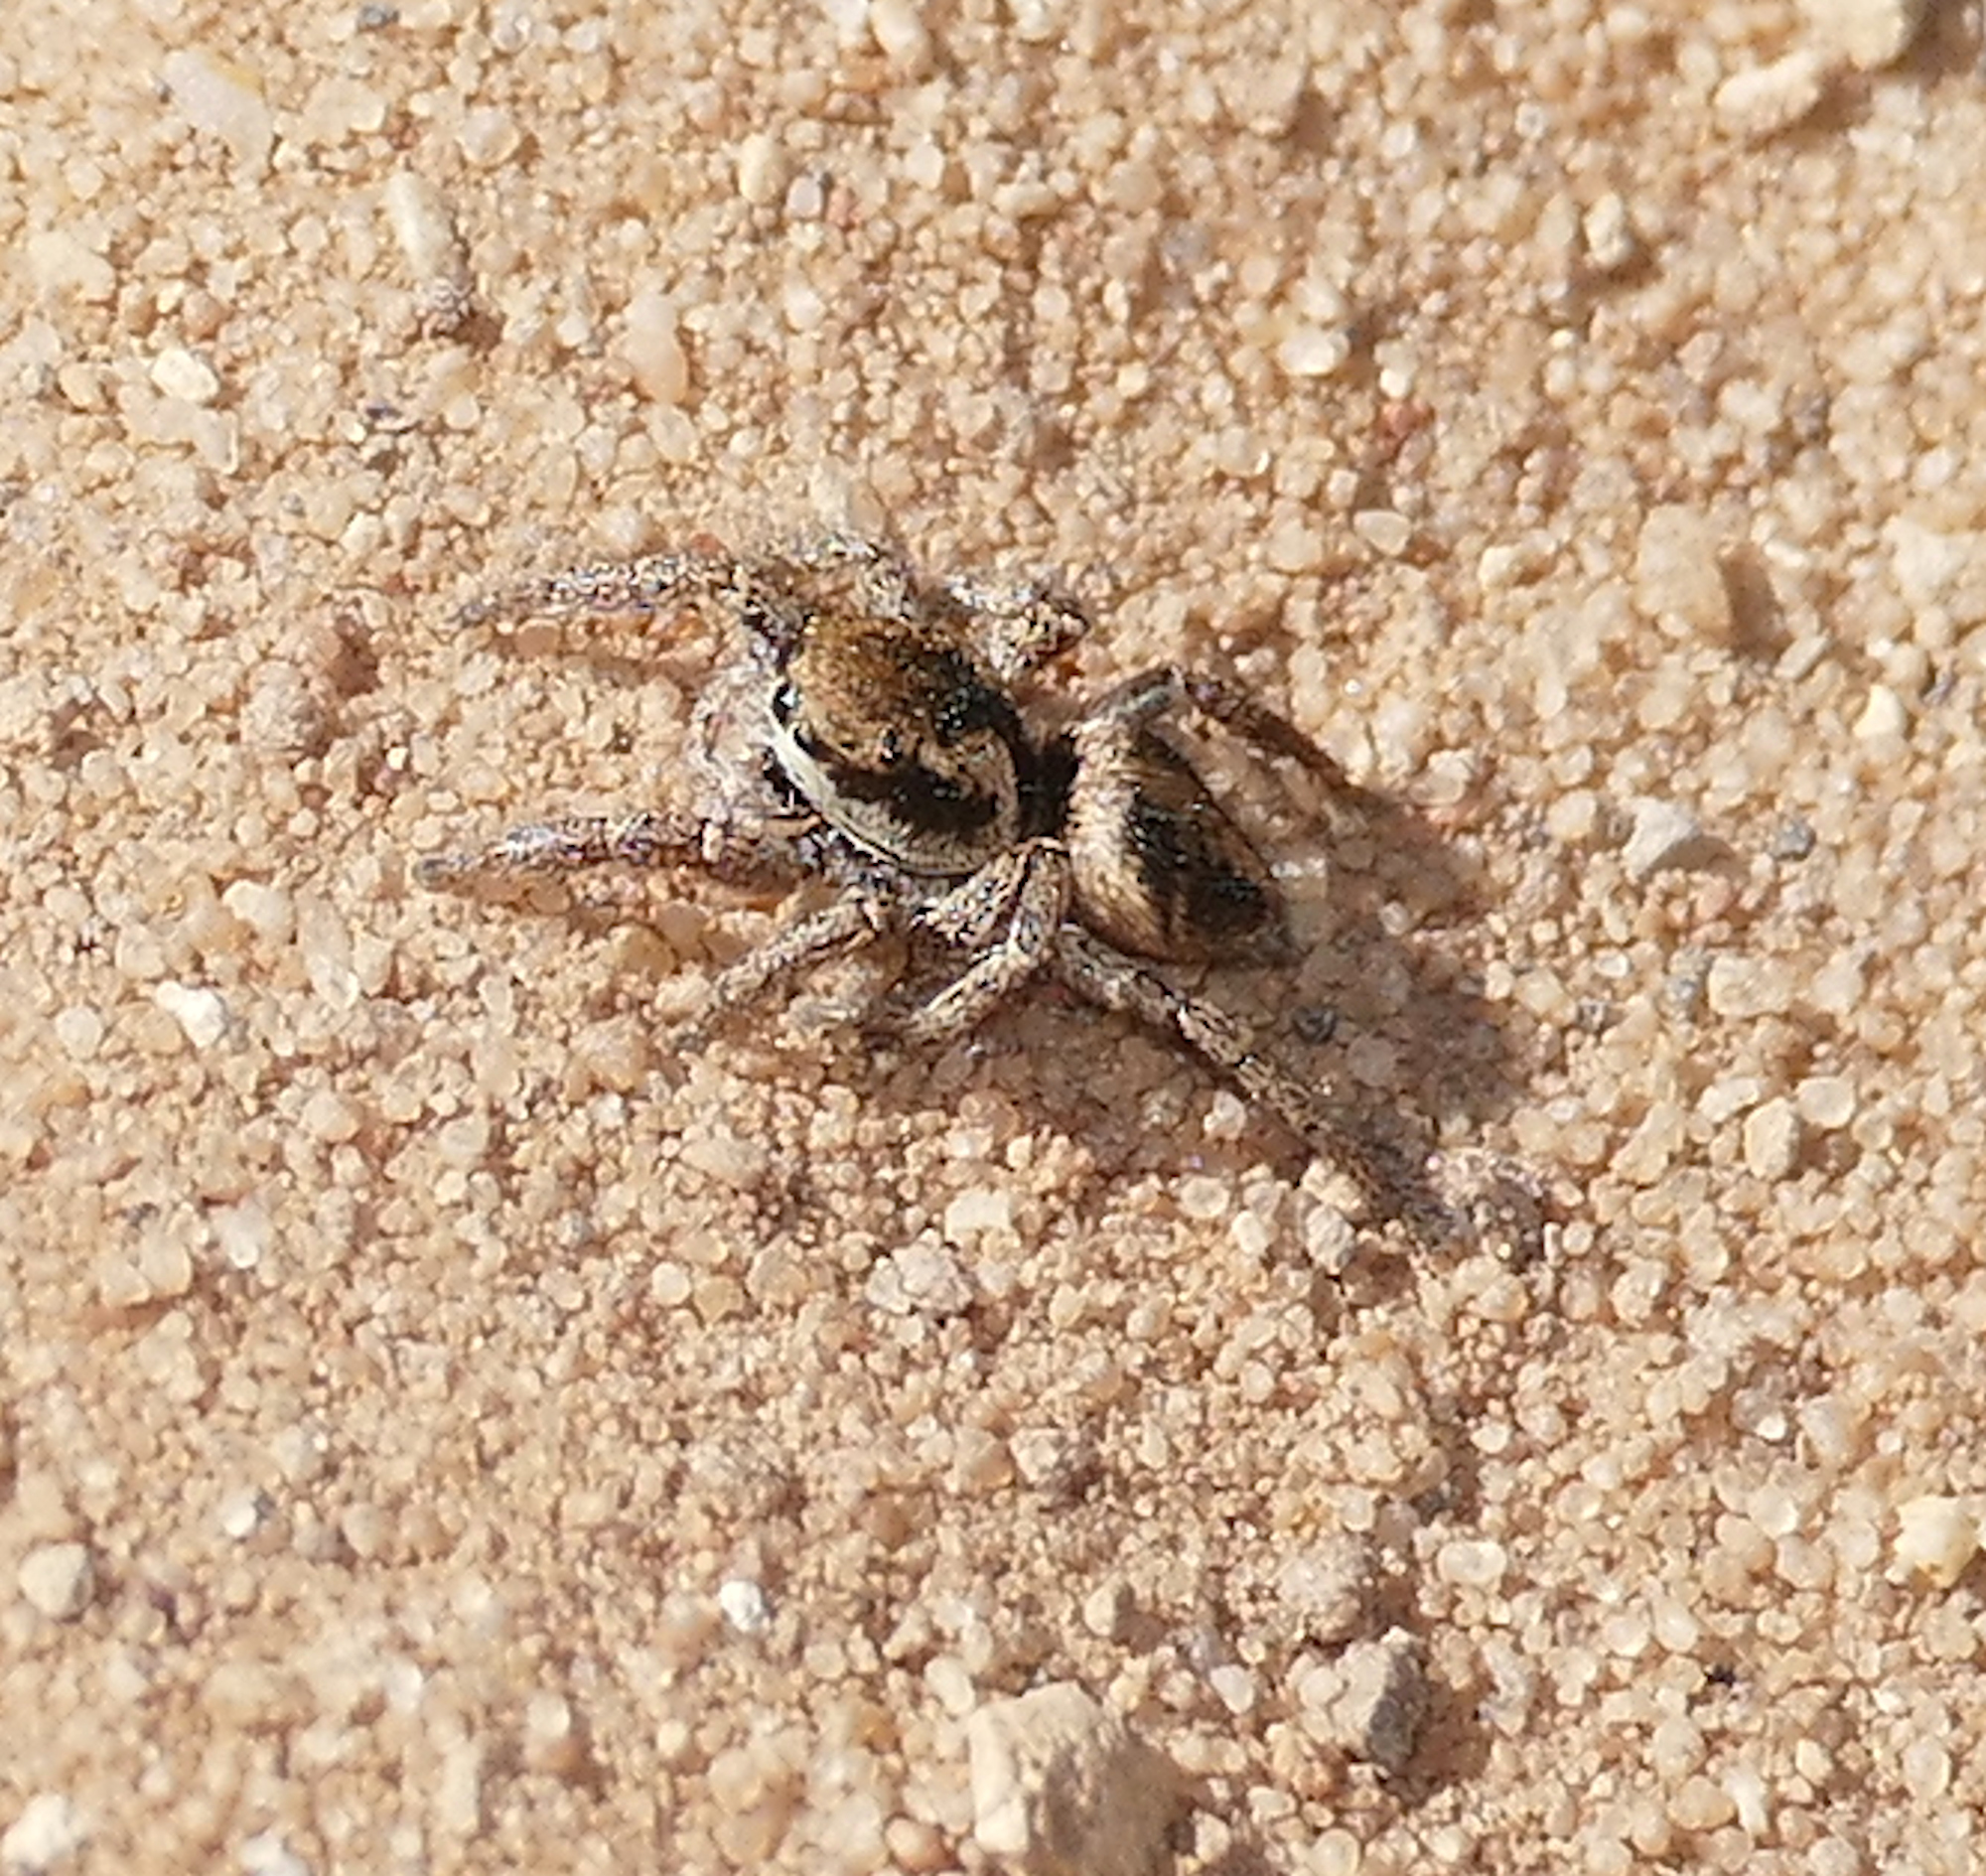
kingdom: Animalia
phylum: Arthropoda
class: Arachnida
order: Araneae
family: Salticidae
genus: Habronattus
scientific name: Habronattus festus
